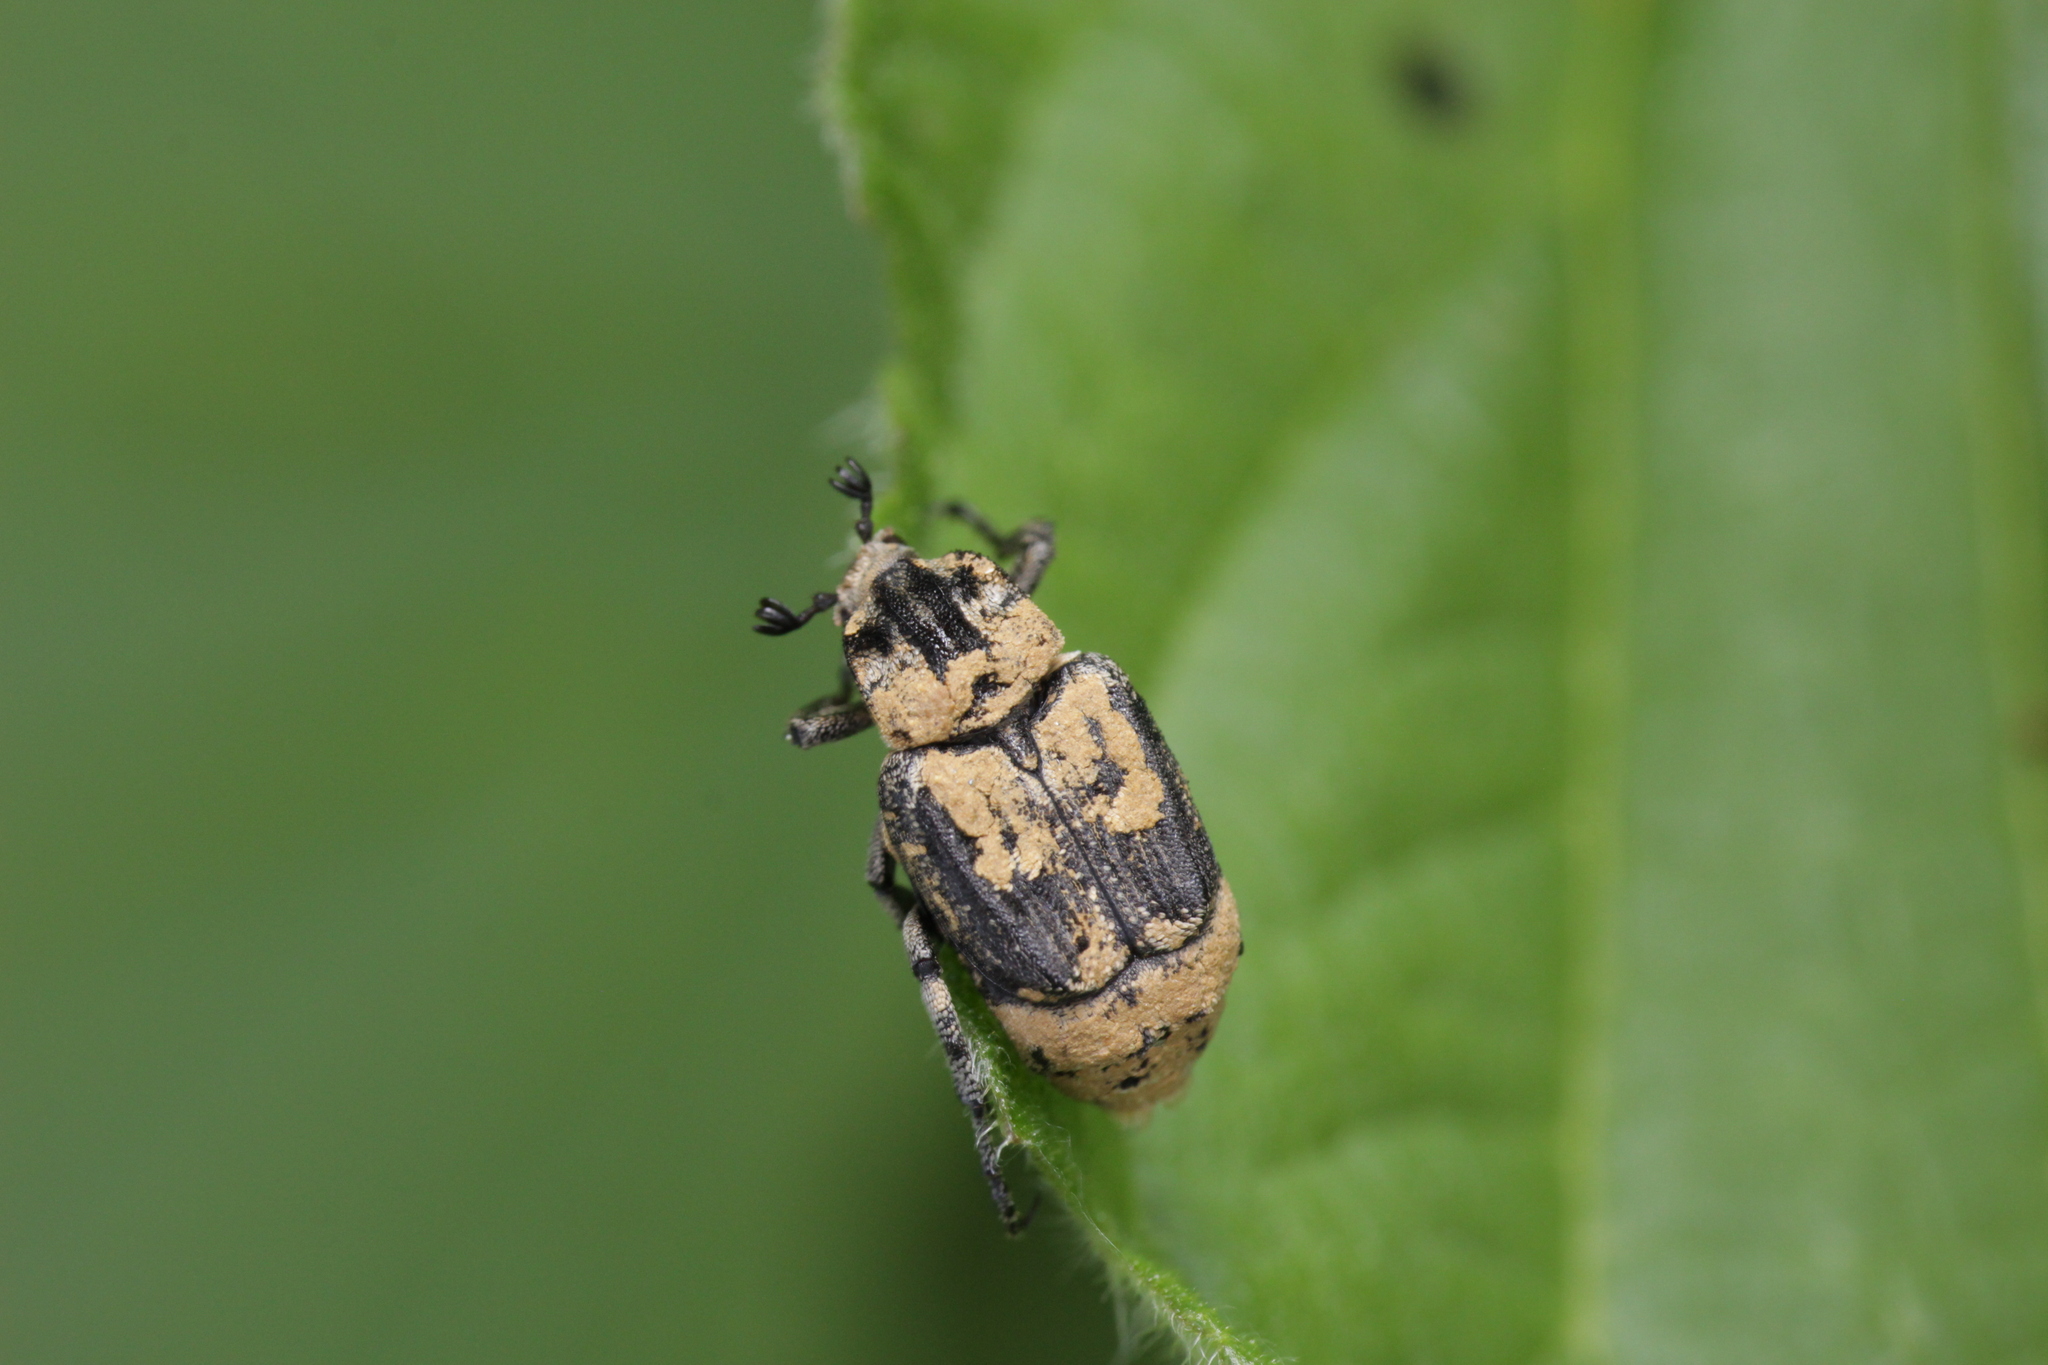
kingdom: Animalia
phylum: Arthropoda
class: Insecta
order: Coleoptera
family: Scarabaeidae
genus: Valgus
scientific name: Valgus hemipterus
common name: Bug flower chafer
